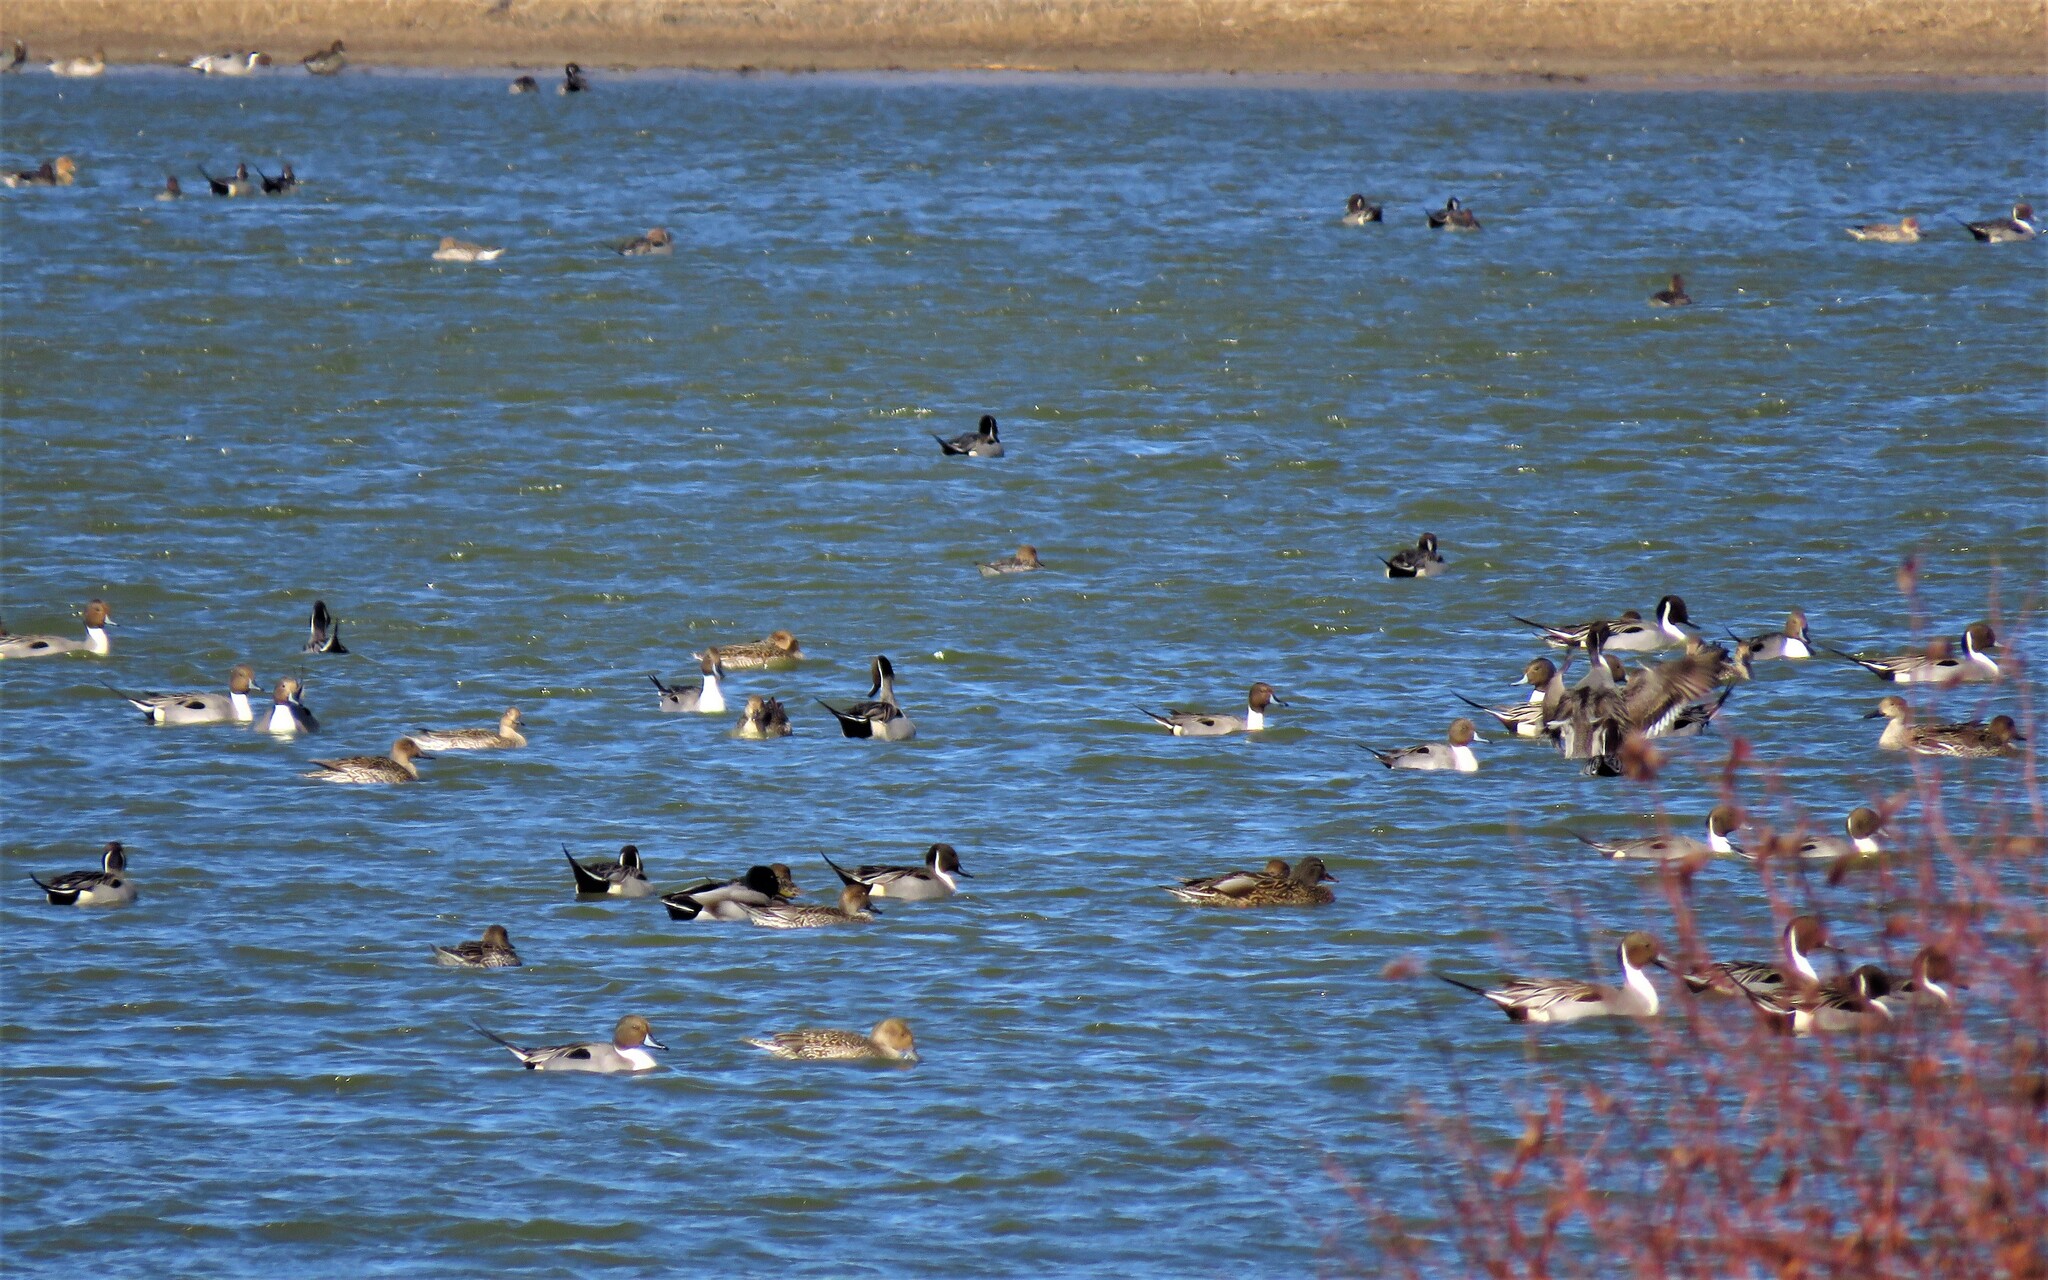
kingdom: Animalia
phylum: Chordata
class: Aves
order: Anseriformes
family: Anatidae
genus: Anas
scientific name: Anas acuta
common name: Northern pintail
